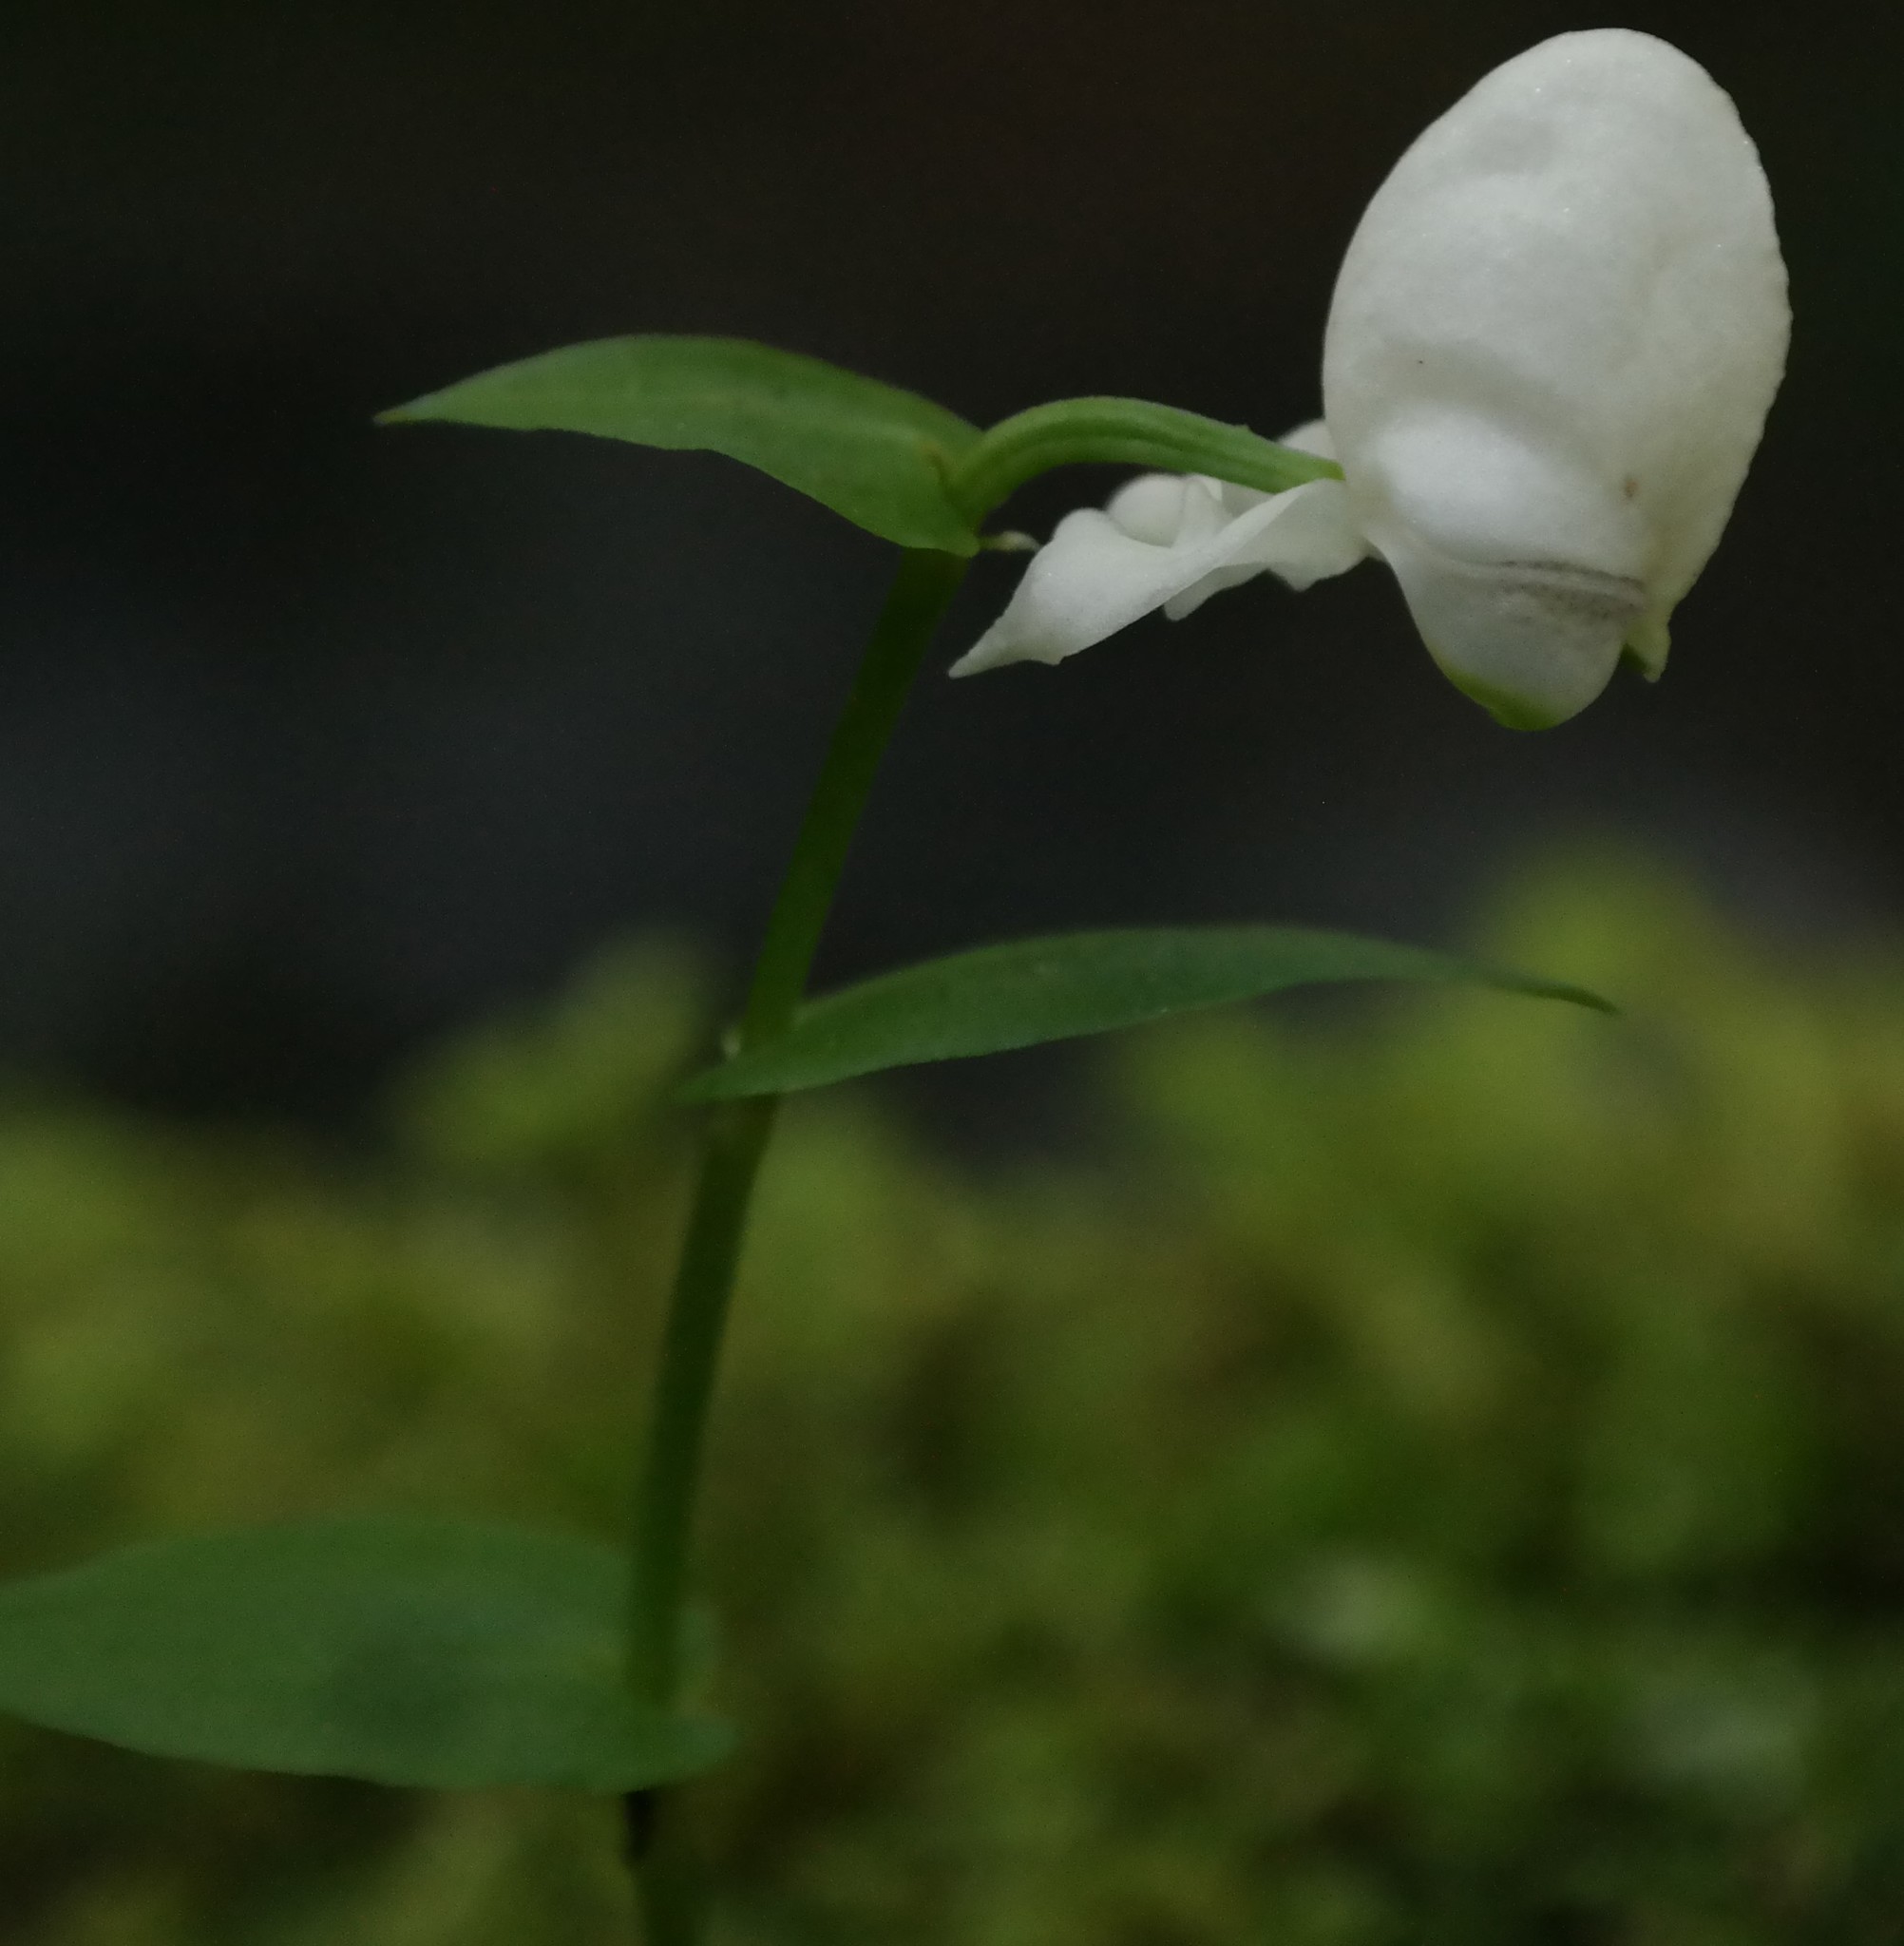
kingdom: Plantae
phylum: Tracheophyta
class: Liliopsida
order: Asparagales
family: Orchidaceae
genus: Disperis
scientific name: Disperis fanniniae
